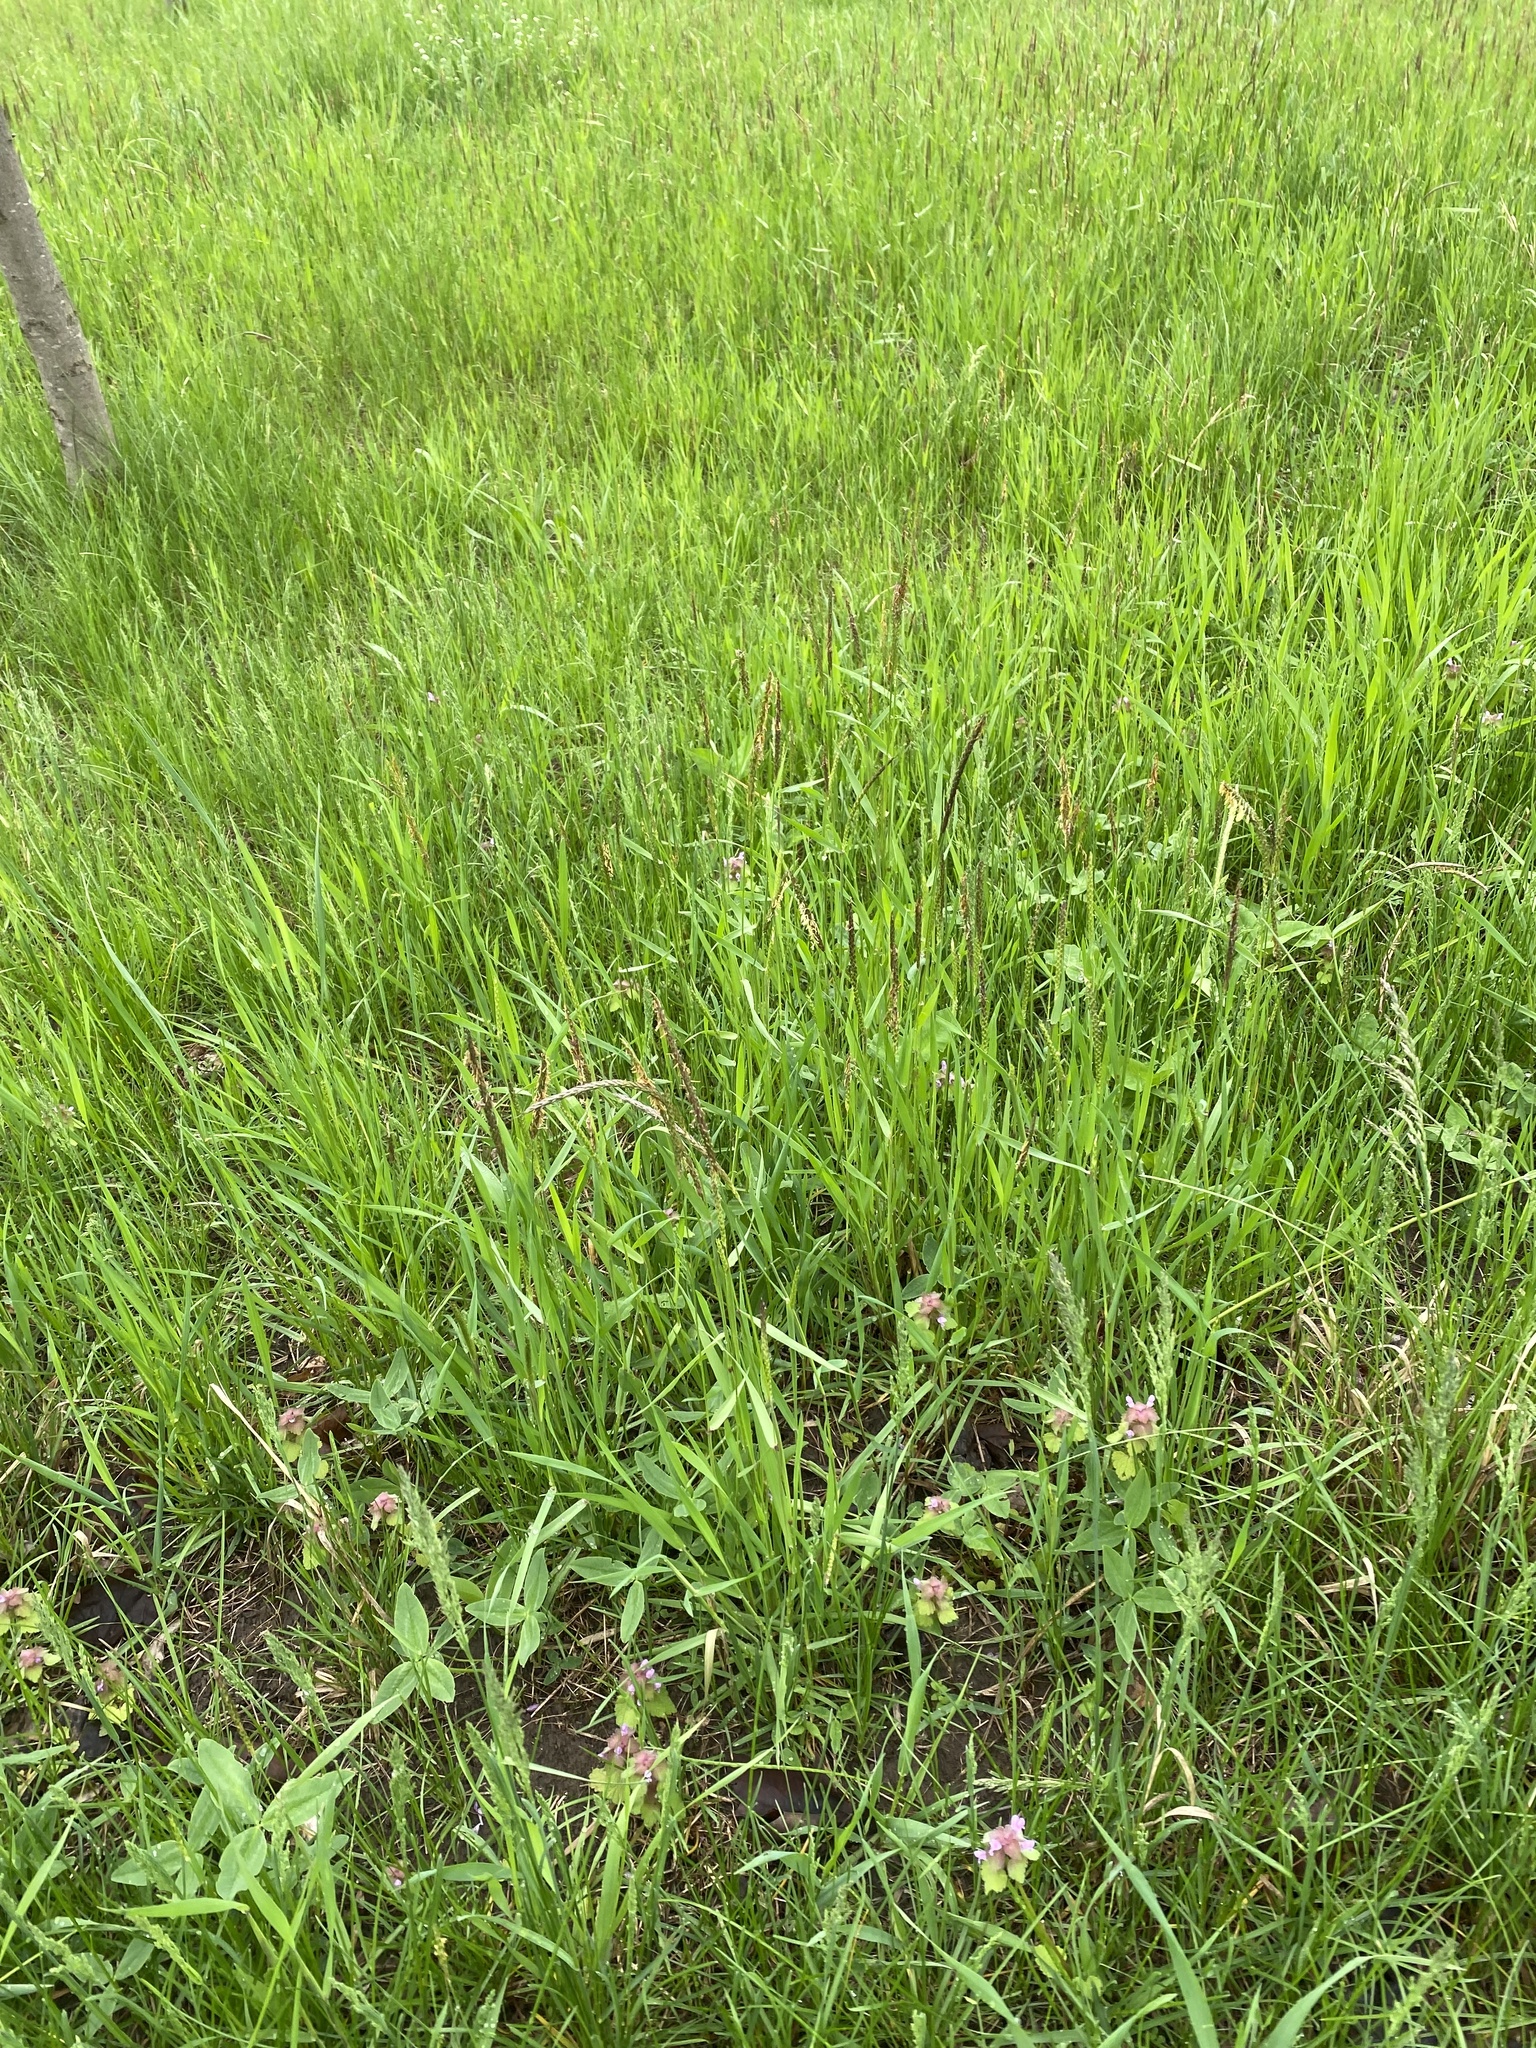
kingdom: Plantae
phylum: Tracheophyta
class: Liliopsida
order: Poales
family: Poaceae
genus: Alopecurus
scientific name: Alopecurus myosuroides
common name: Black-grass
